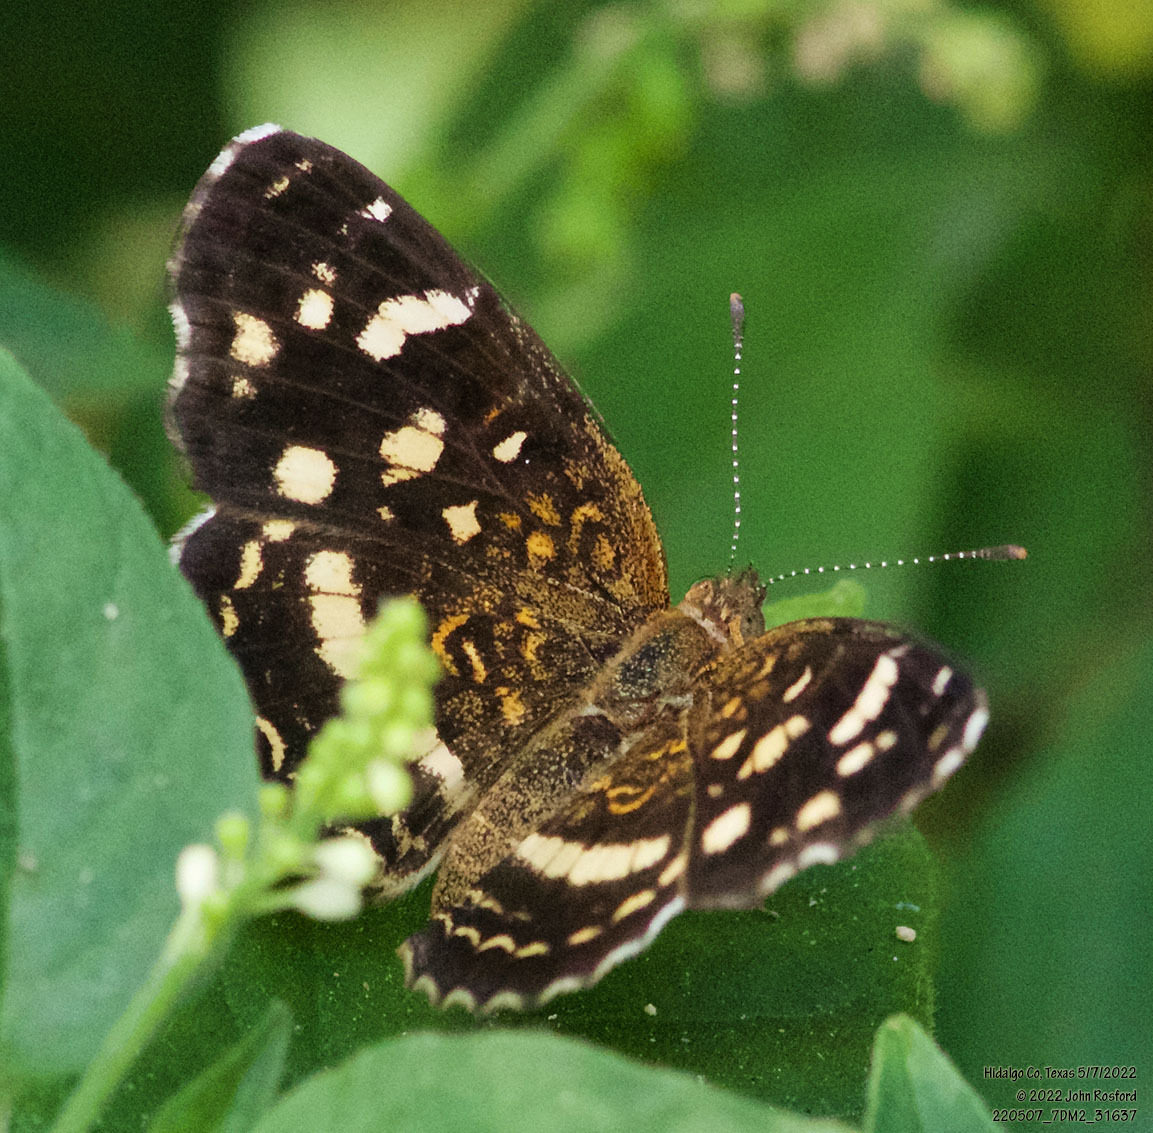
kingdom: Animalia
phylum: Arthropoda
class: Insecta
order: Lepidoptera
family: Nymphalidae
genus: Anthanassa
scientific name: Anthanassa tulcis
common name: Pale-banded crescent
